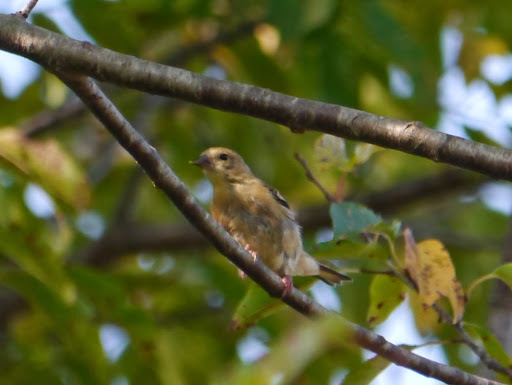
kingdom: Animalia
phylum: Chordata
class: Aves
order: Passeriformes
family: Fringillidae
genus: Spinus
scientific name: Spinus tristis
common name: American goldfinch
